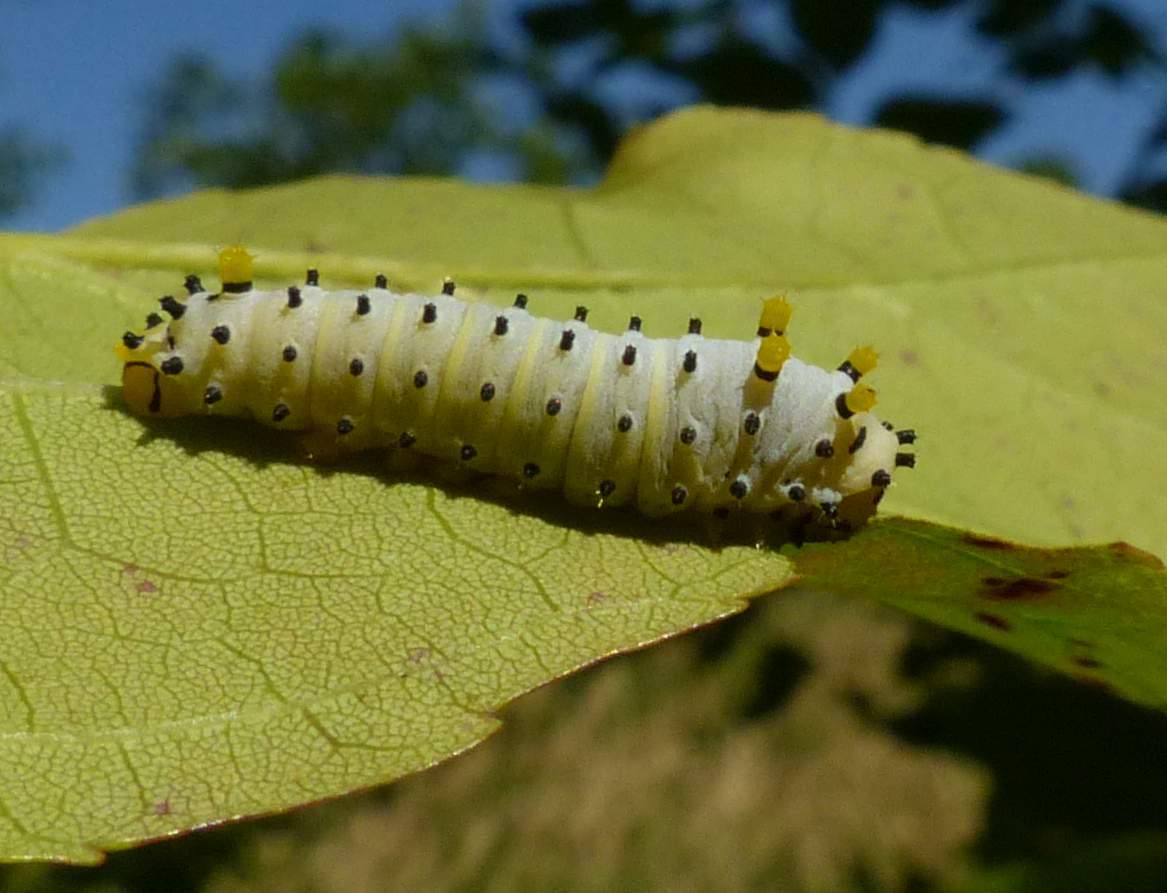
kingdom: Animalia
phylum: Arthropoda
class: Insecta
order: Lepidoptera
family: Saturniidae
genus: Callosamia
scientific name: Callosamia promethea
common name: Promethea silkmoth
